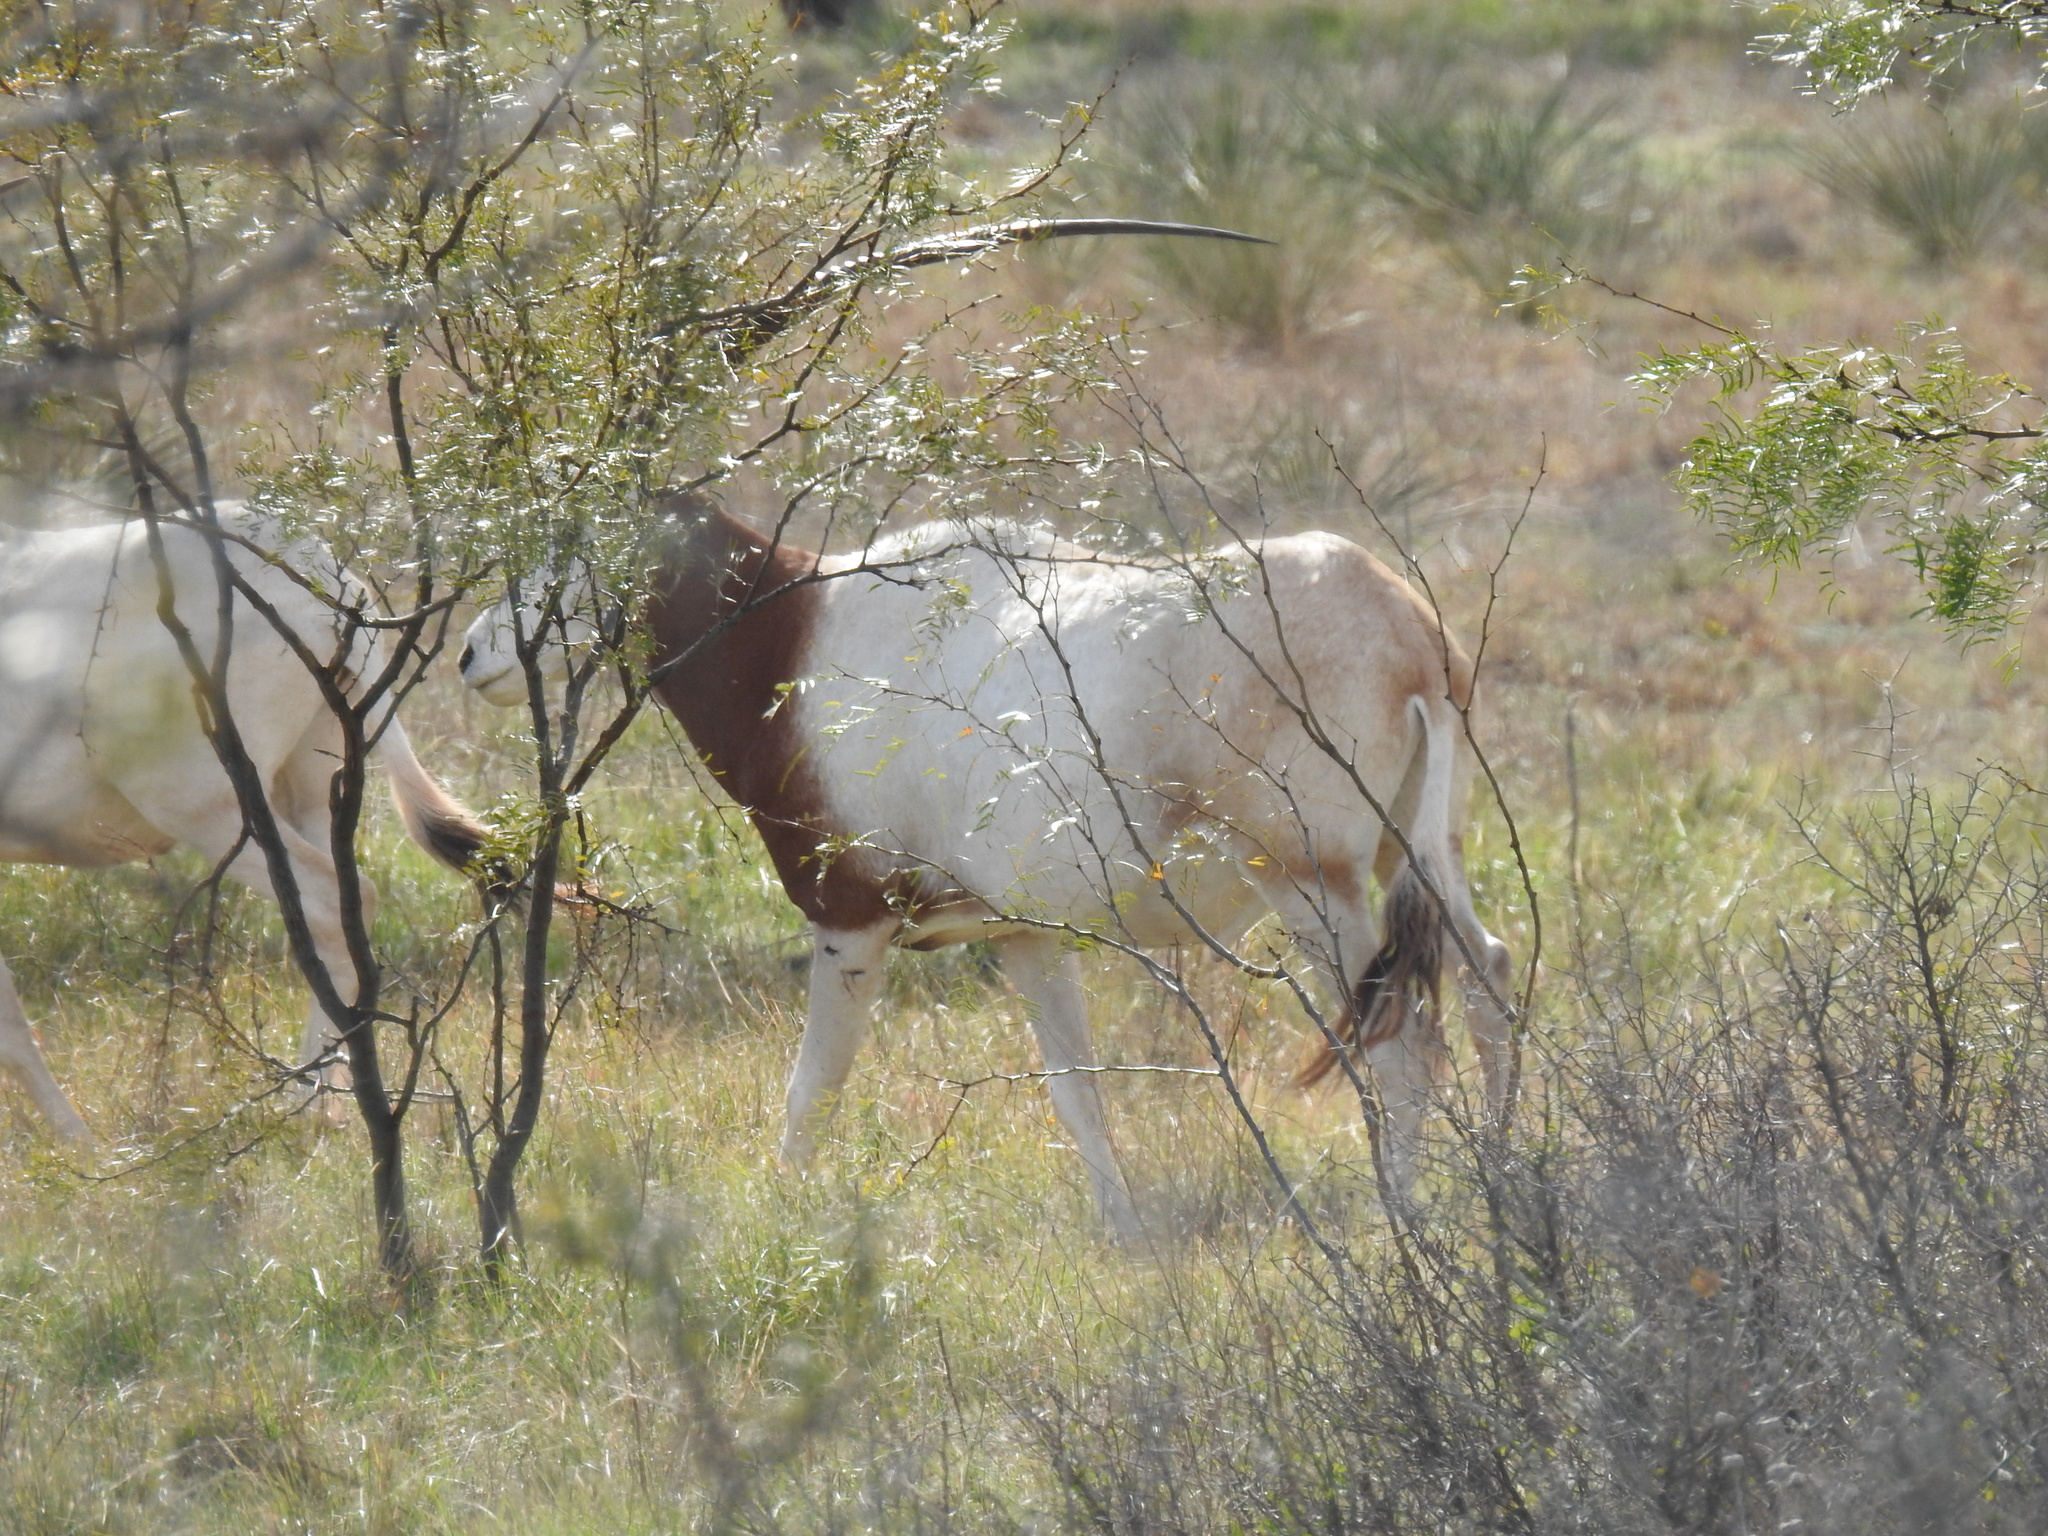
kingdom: Animalia
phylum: Chordata
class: Mammalia
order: Artiodactyla
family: Bovidae
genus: Oryx
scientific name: Oryx dammah
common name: Scimitar-horned oryx
